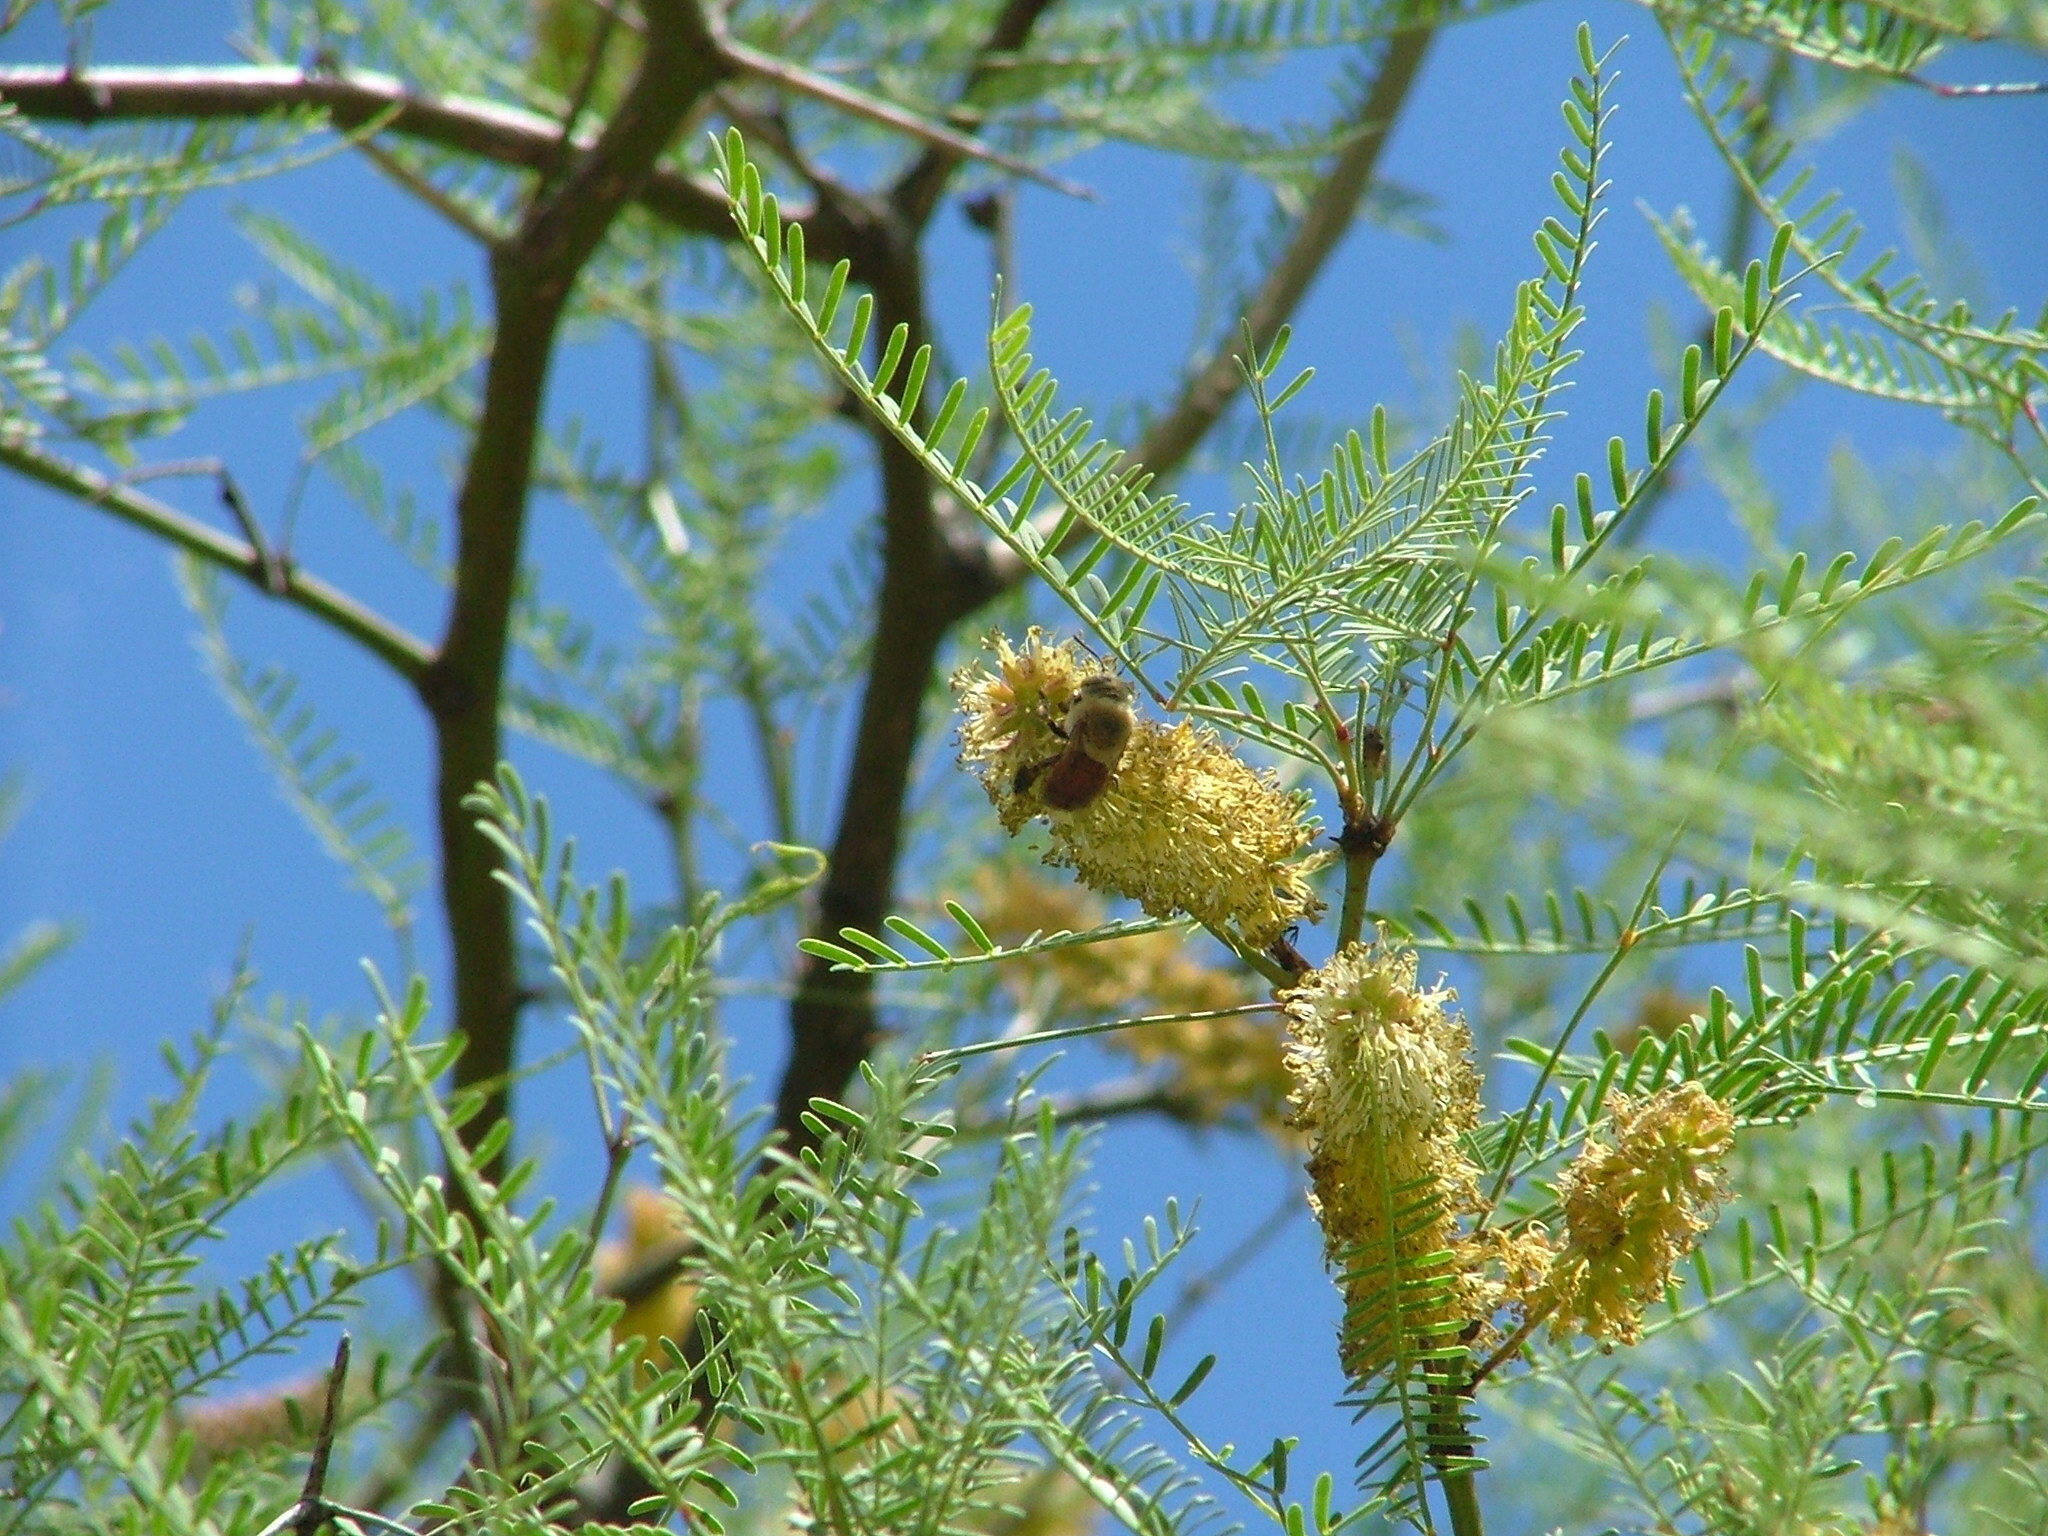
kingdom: Animalia
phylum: Arthropoda
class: Insecta
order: Hymenoptera
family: Apidae
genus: Centris
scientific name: Centris brethesi
